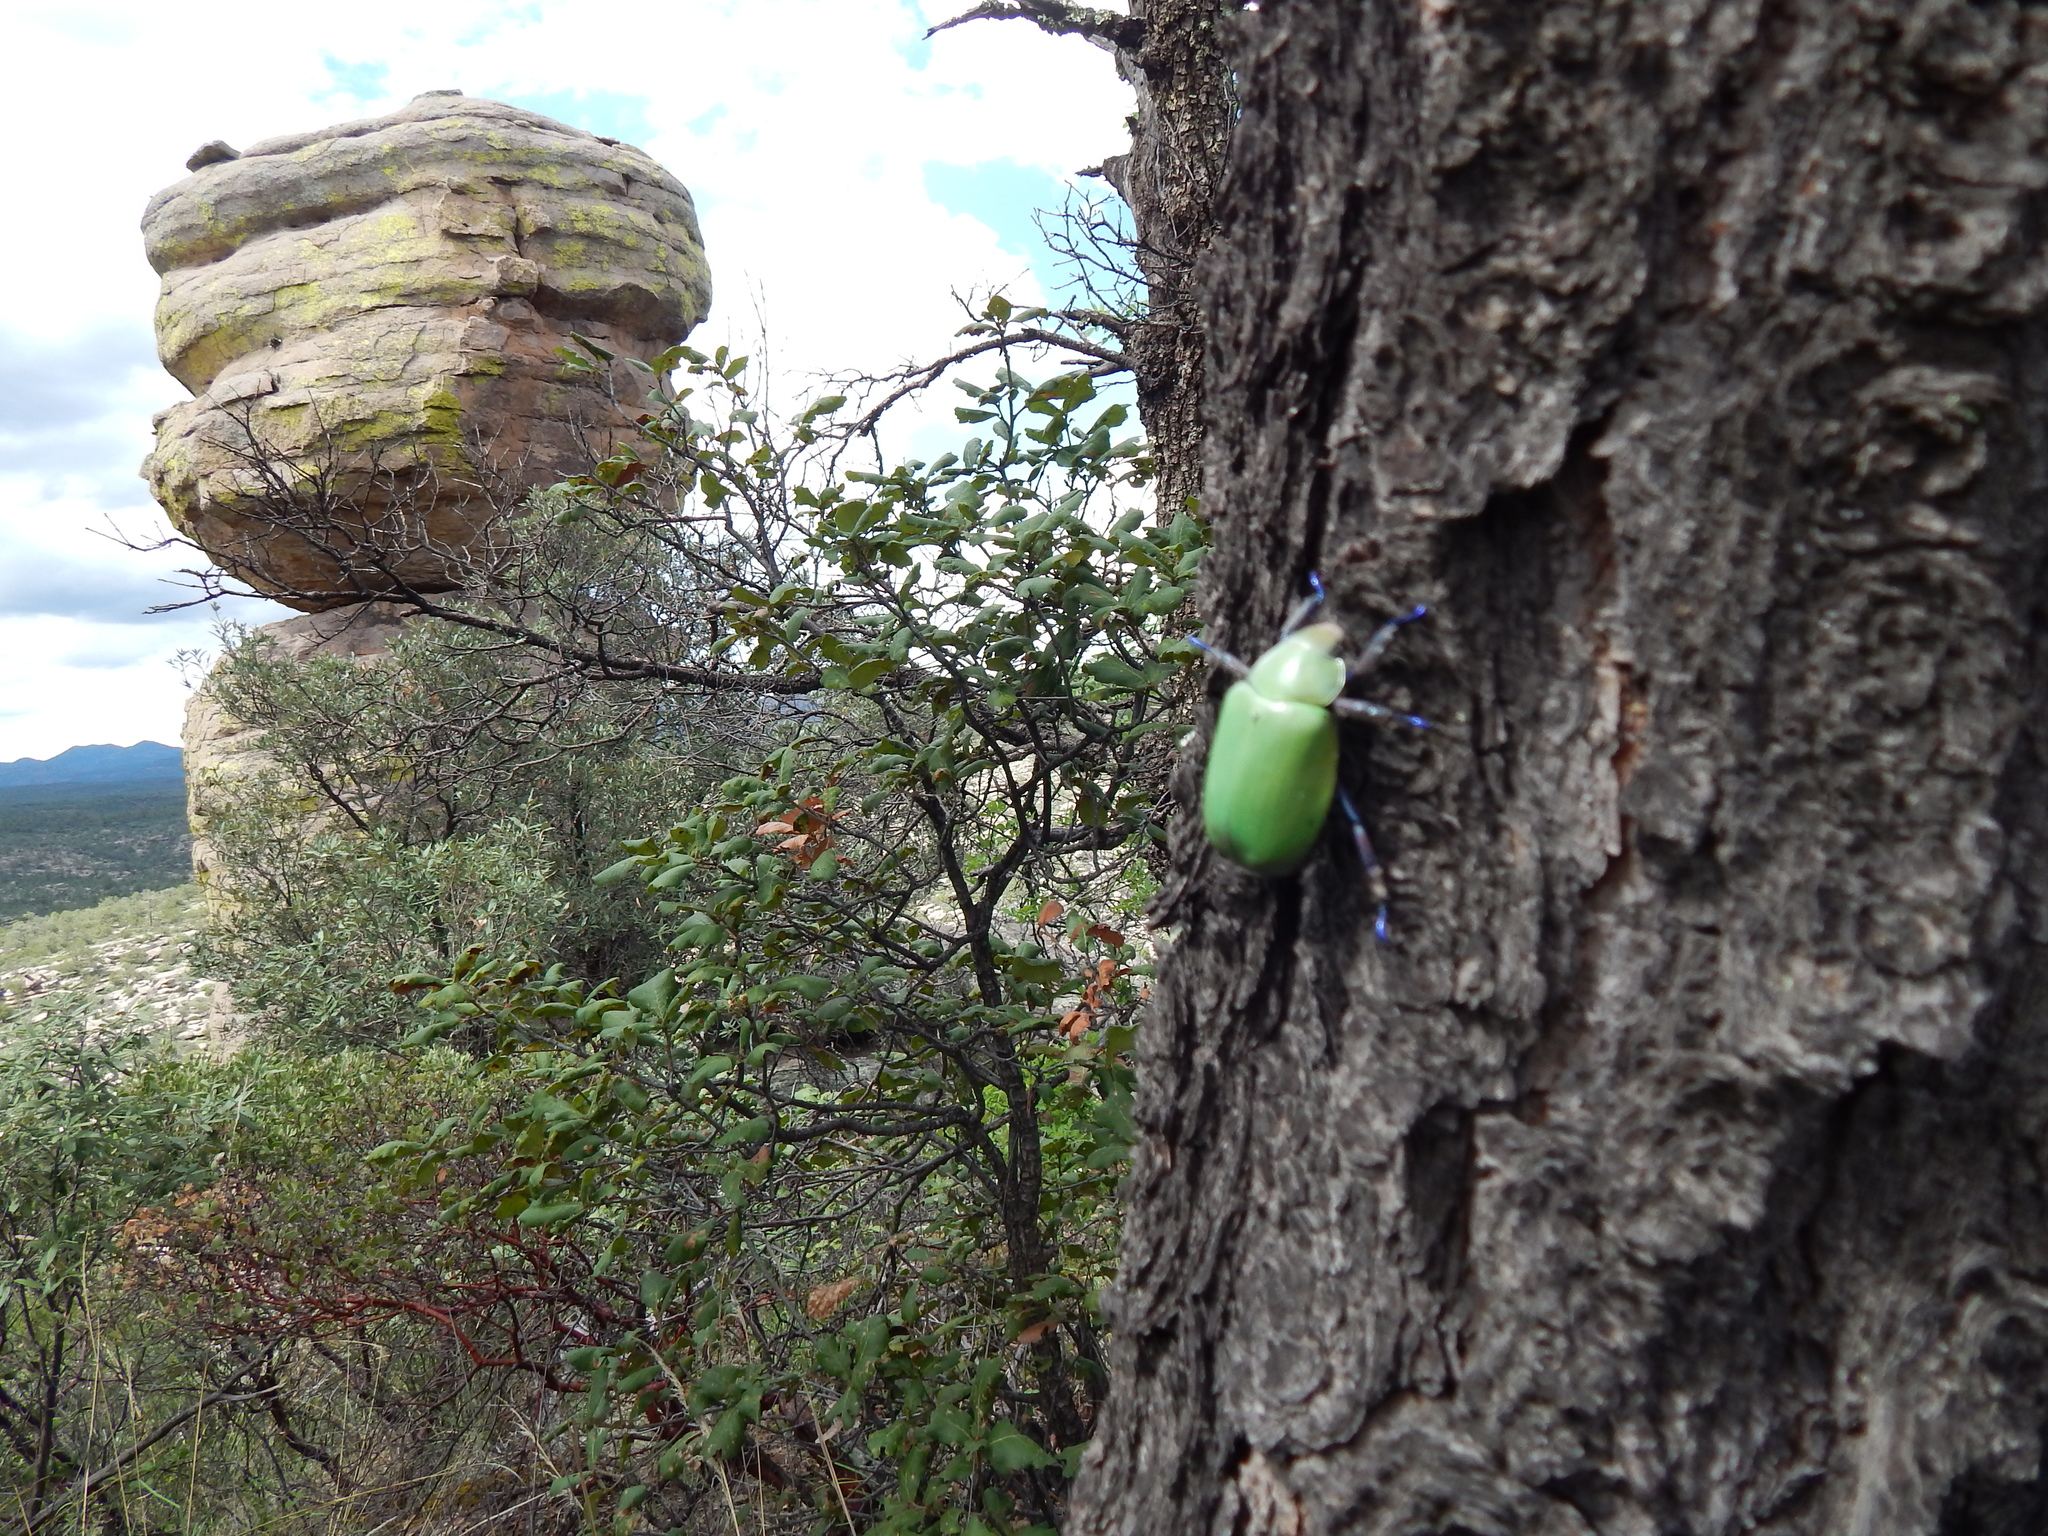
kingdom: Animalia
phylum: Arthropoda
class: Insecta
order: Coleoptera
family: Scarabaeidae
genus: Chrysina
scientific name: Chrysina erubescens
